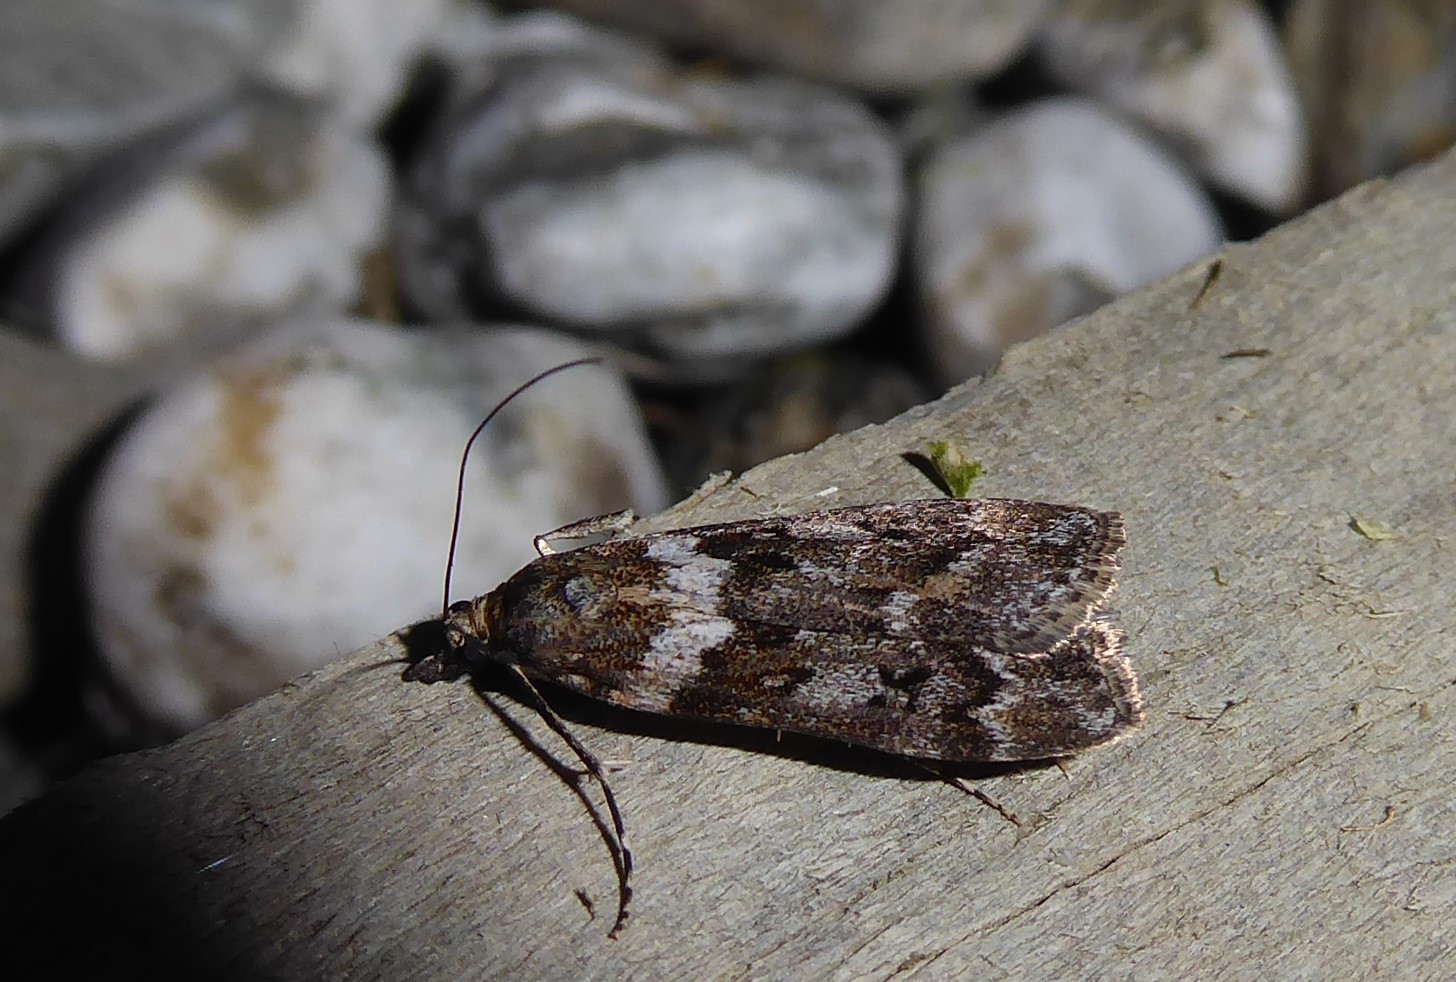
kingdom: Animalia
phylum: Arthropoda
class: Insecta
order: Lepidoptera
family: Crambidae
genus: Eudonia
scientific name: Eudonia submarginalis
